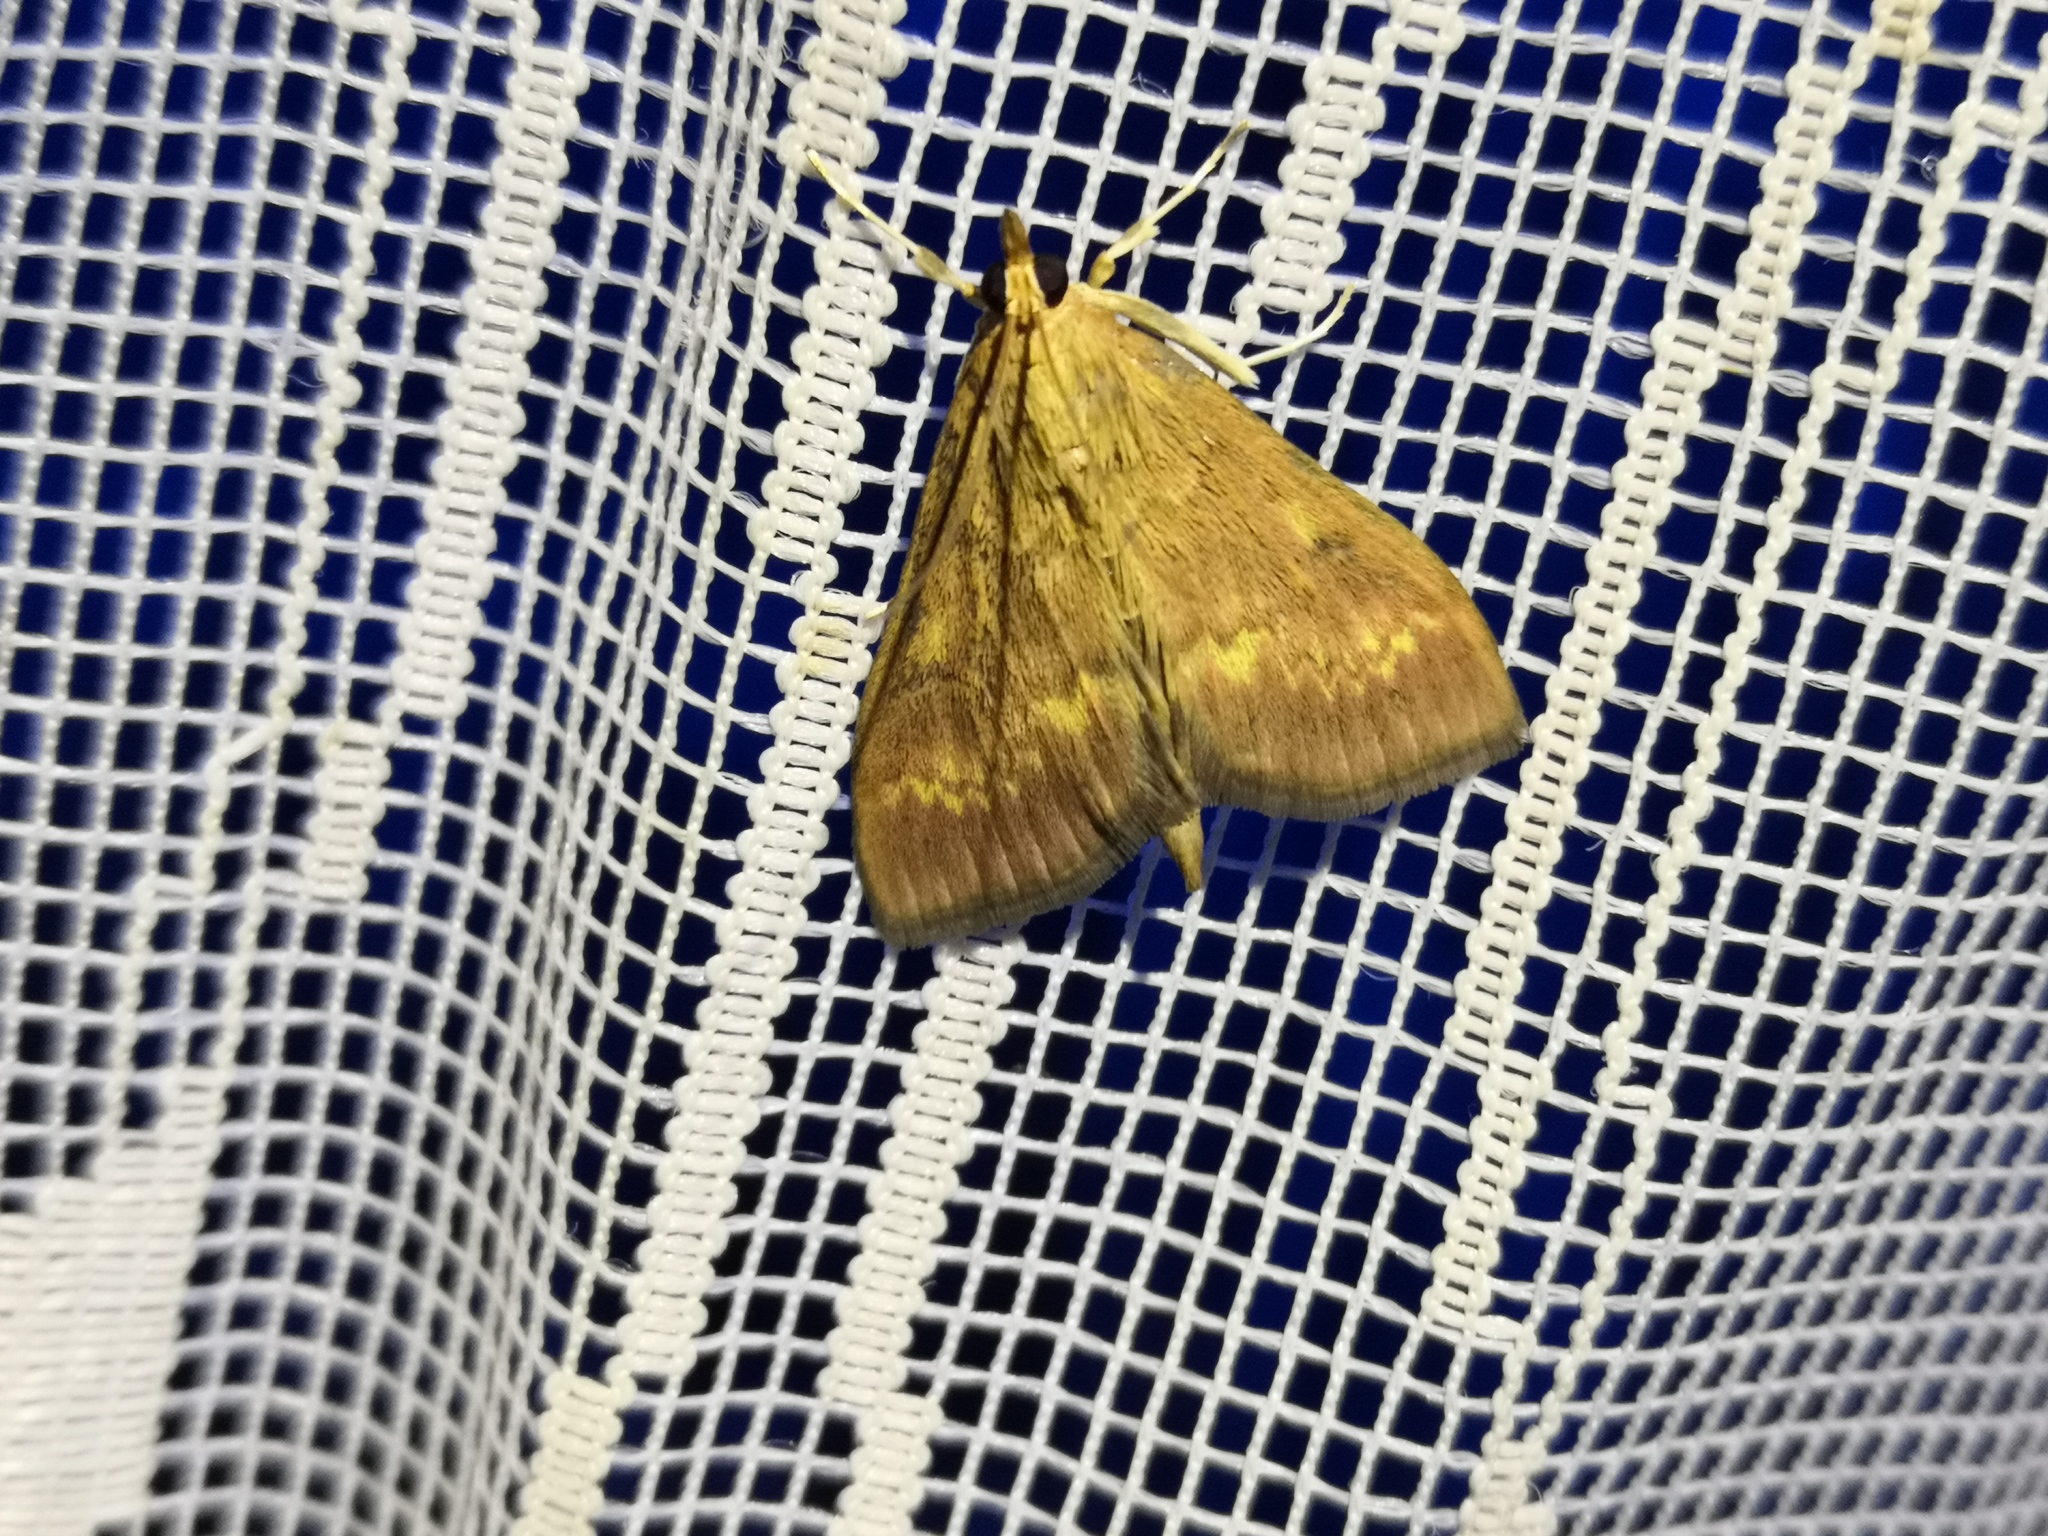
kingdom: Animalia
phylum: Arthropoda
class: Insecta
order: Lepidoptera
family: Crambidae
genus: Ostrinia
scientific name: Ostrinia nubilalis
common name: European corn borer
